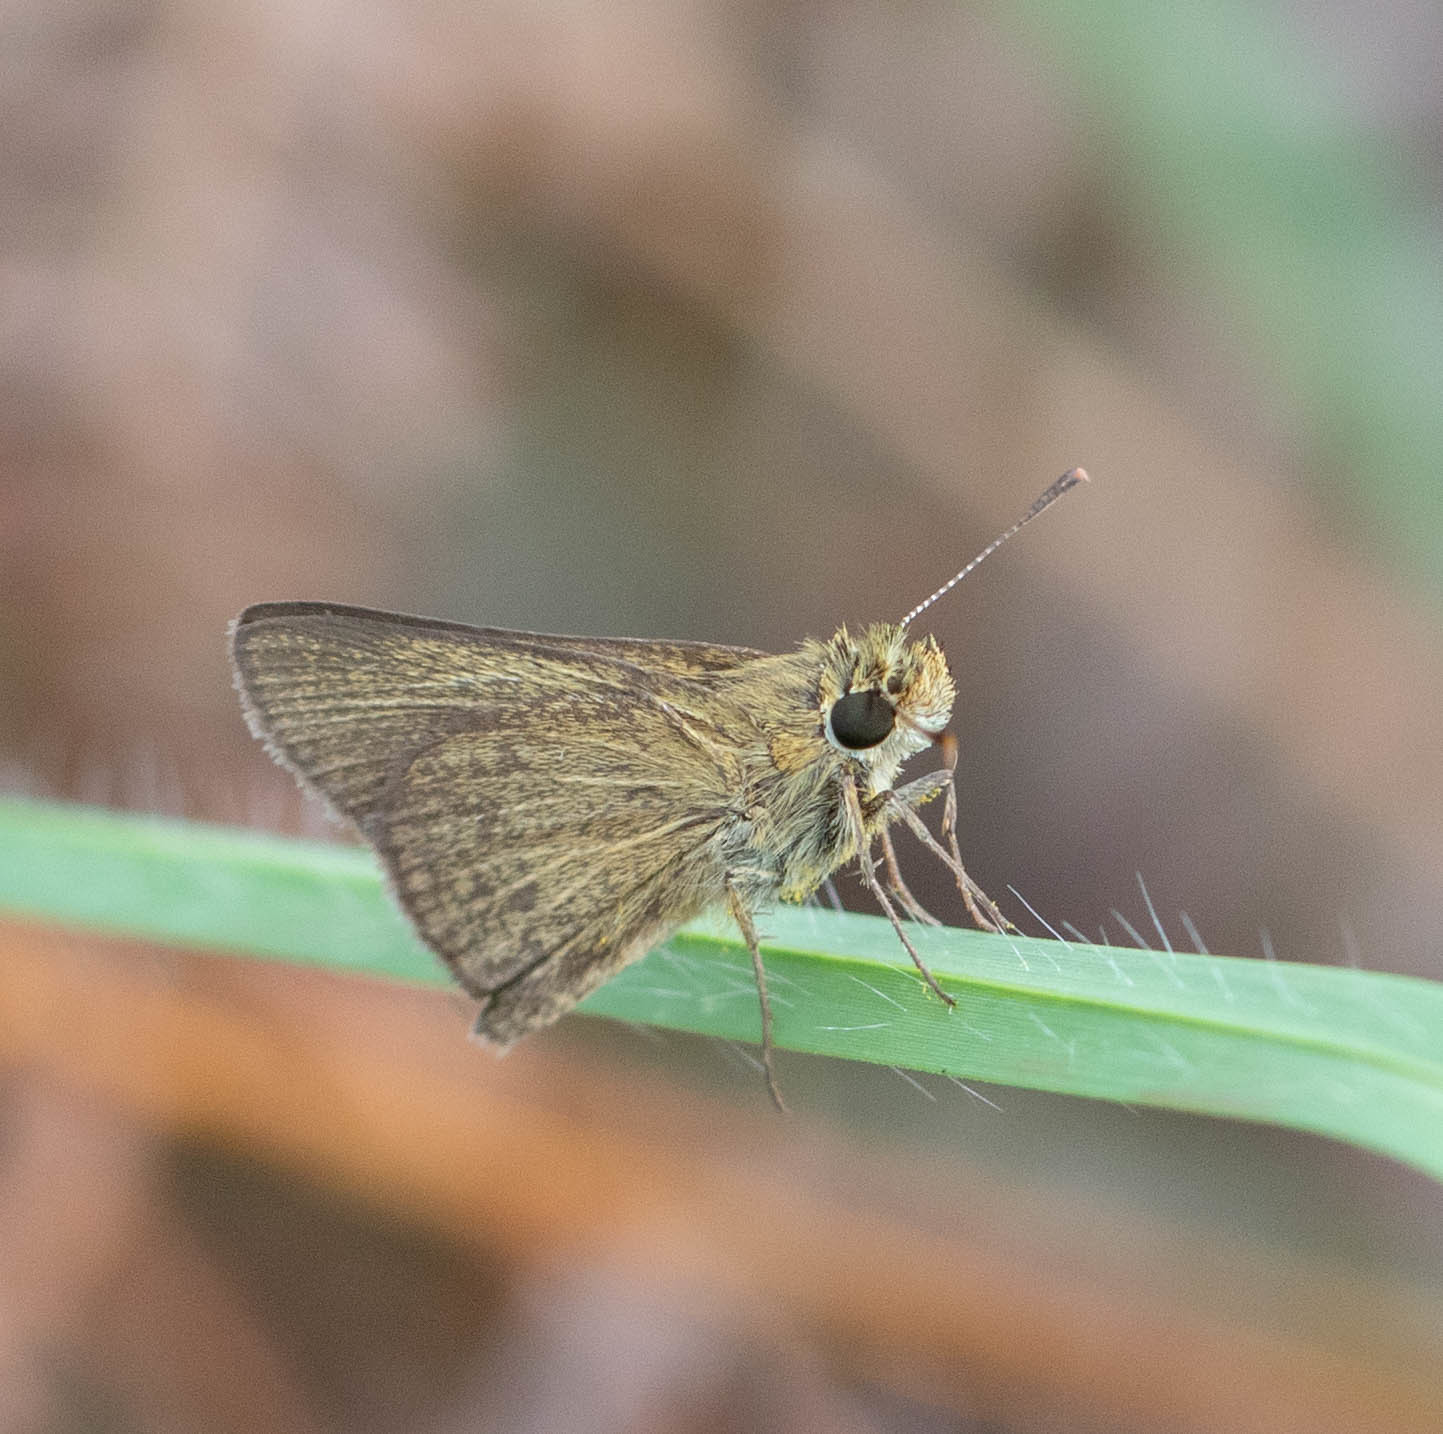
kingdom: Animalia
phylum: Arthropoda
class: Insecta
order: Lepidoptera
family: Hesperiidae
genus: Nastra
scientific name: Nastra lherminier
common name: Swarthy skipper
